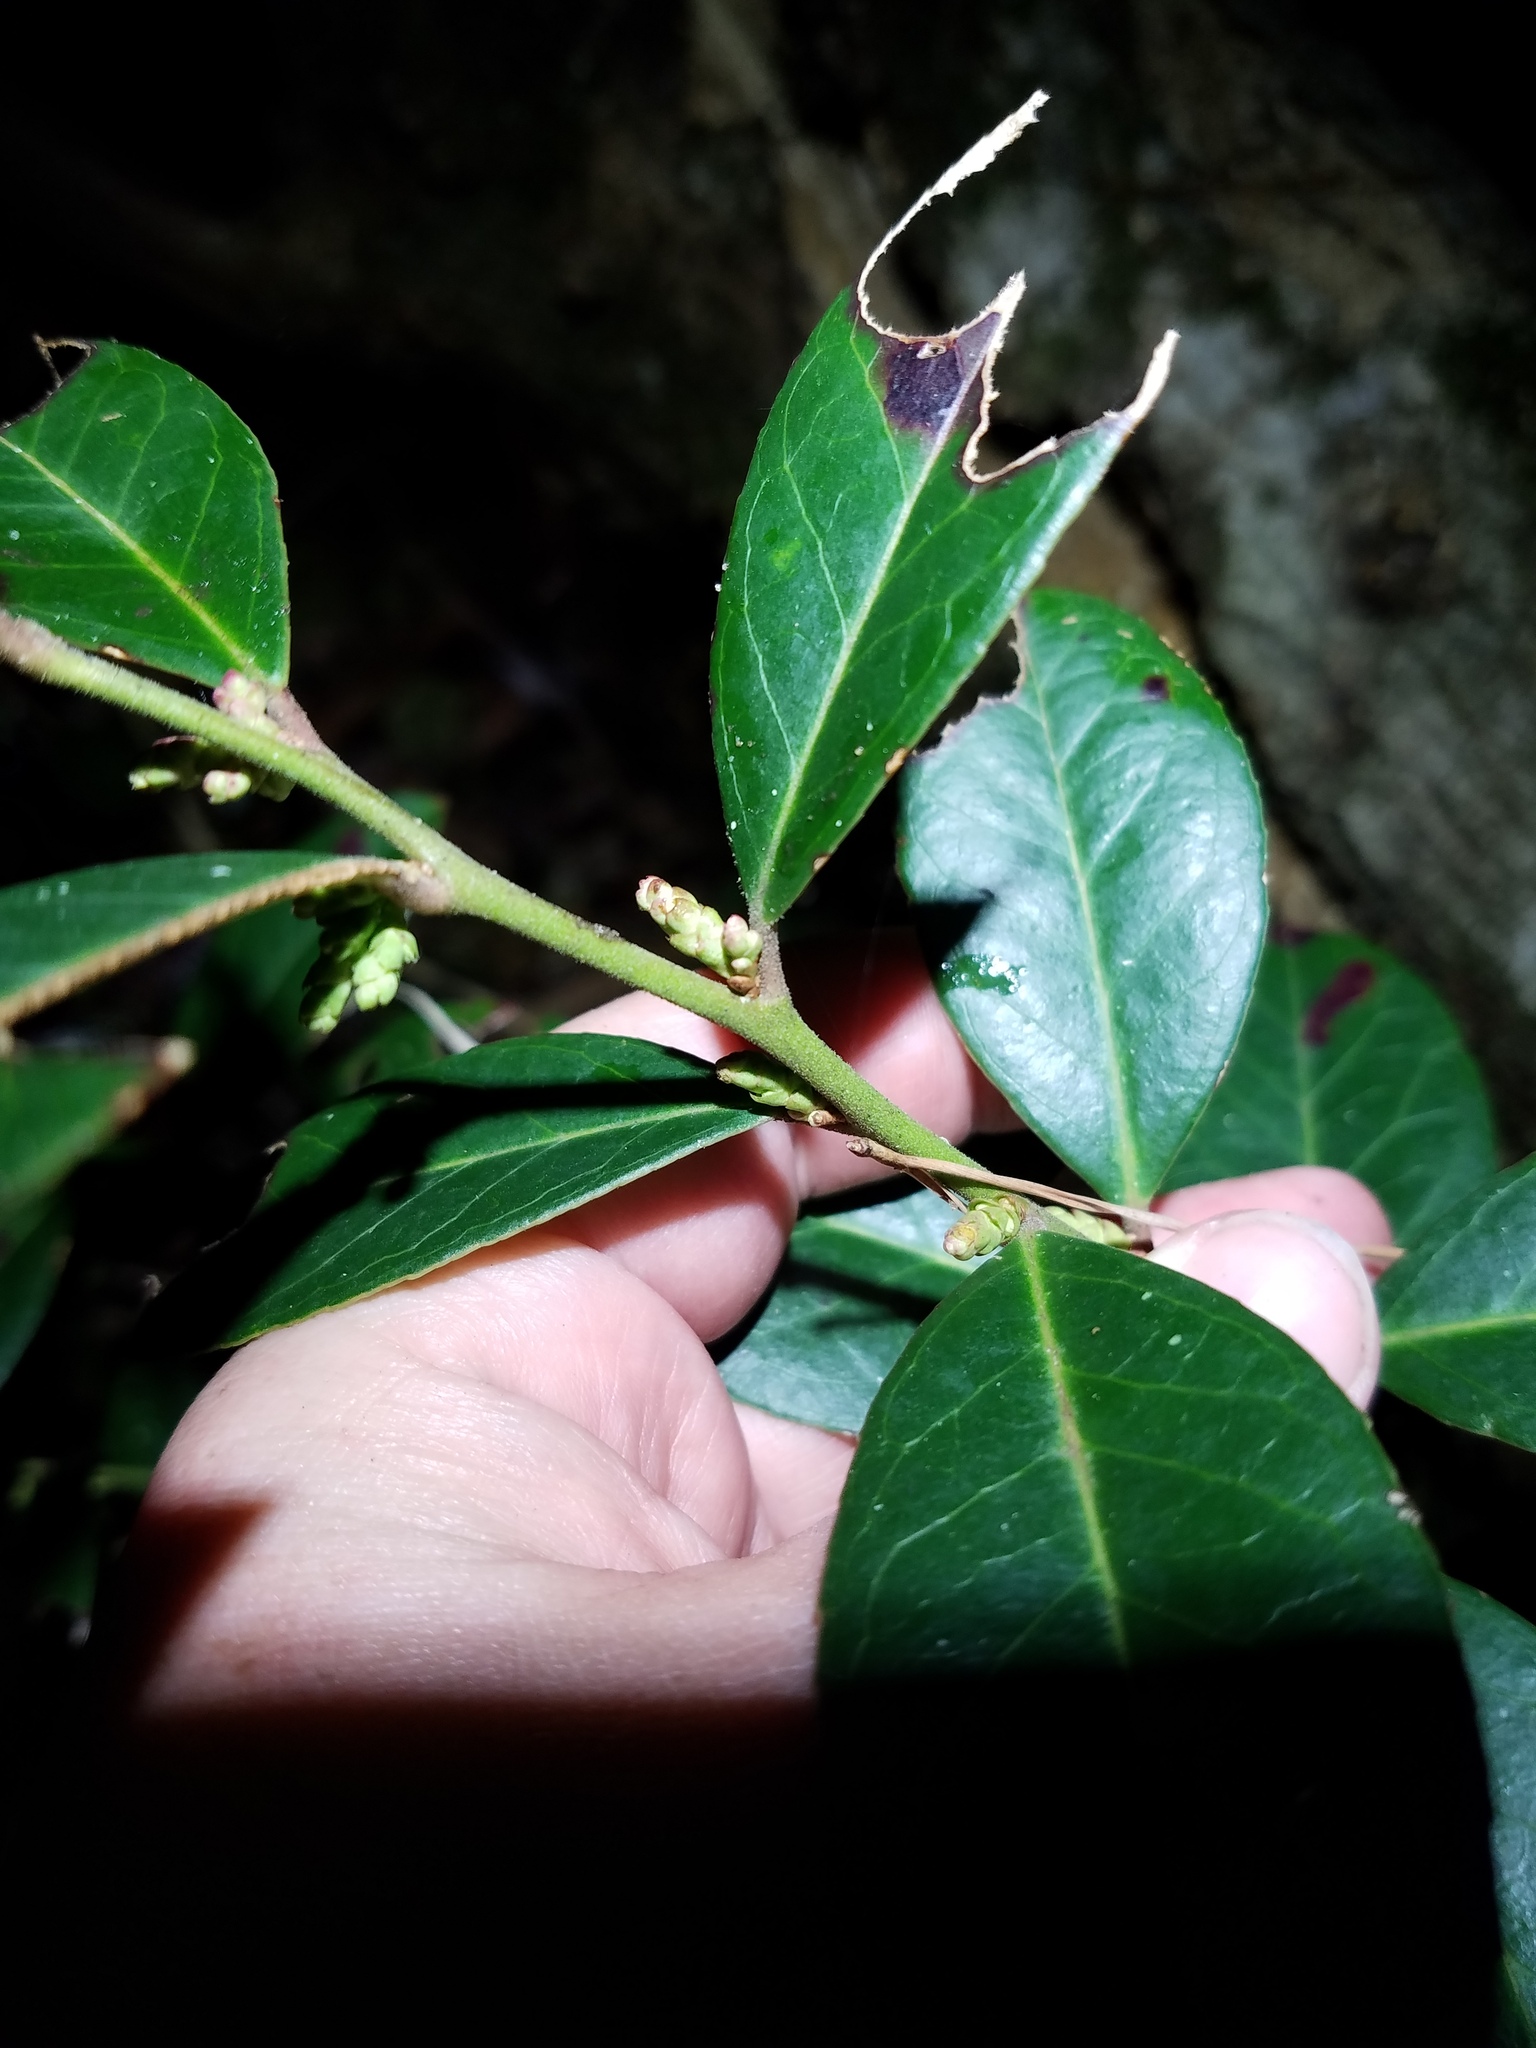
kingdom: Plantae
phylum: Tracheophyta
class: Magnoliopsida
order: Ericales
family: Ericaceae
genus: Leucothoe
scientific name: Leucothoe axillaris
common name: Leucothoe
